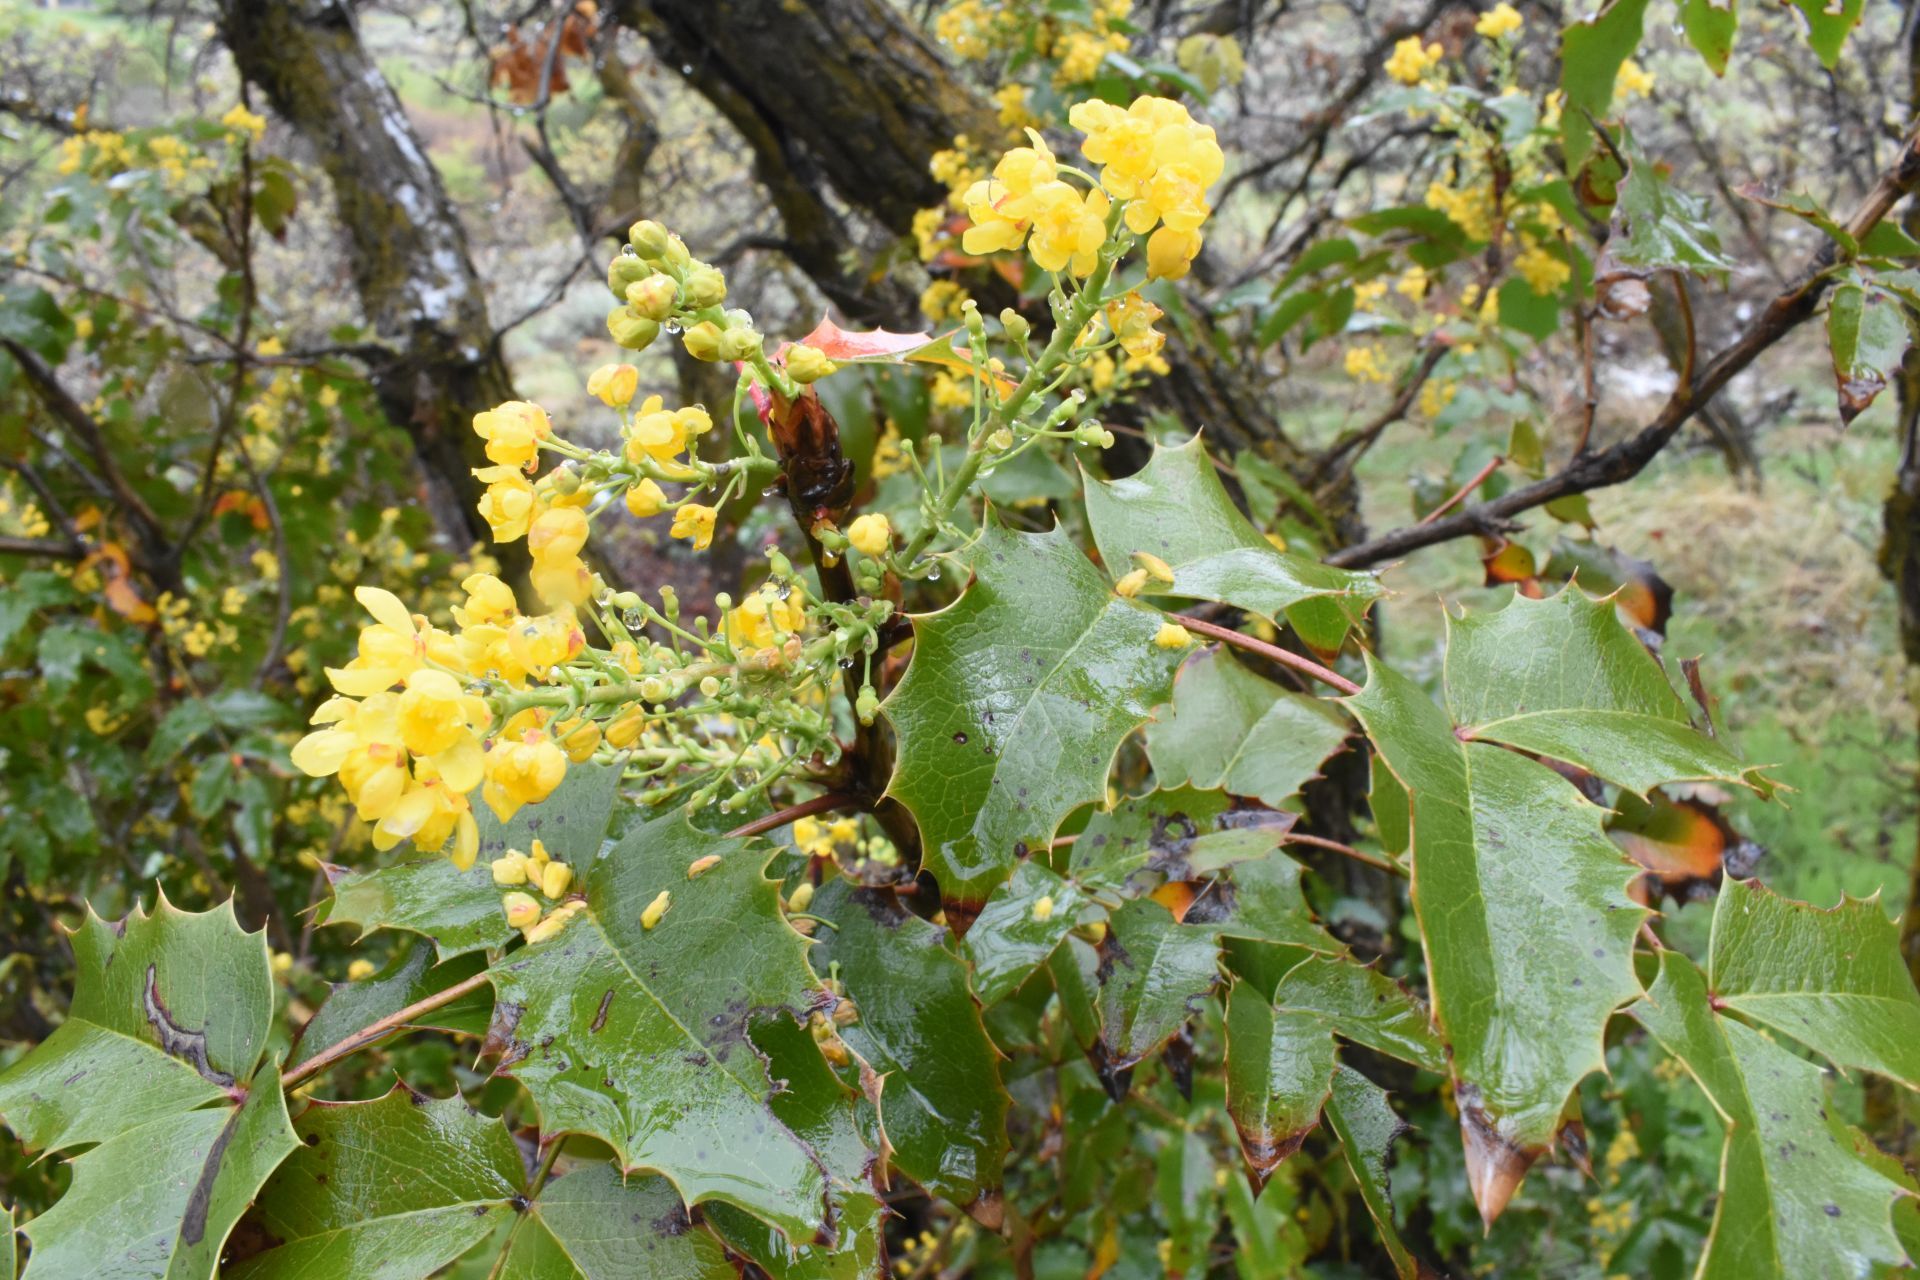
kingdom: Plantae
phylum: Tracheophyta
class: Magnoliopsida
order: Ranunculales
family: Berberidaceae
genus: Mahonia
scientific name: Mahonia aquifolium
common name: Oregon-grape
